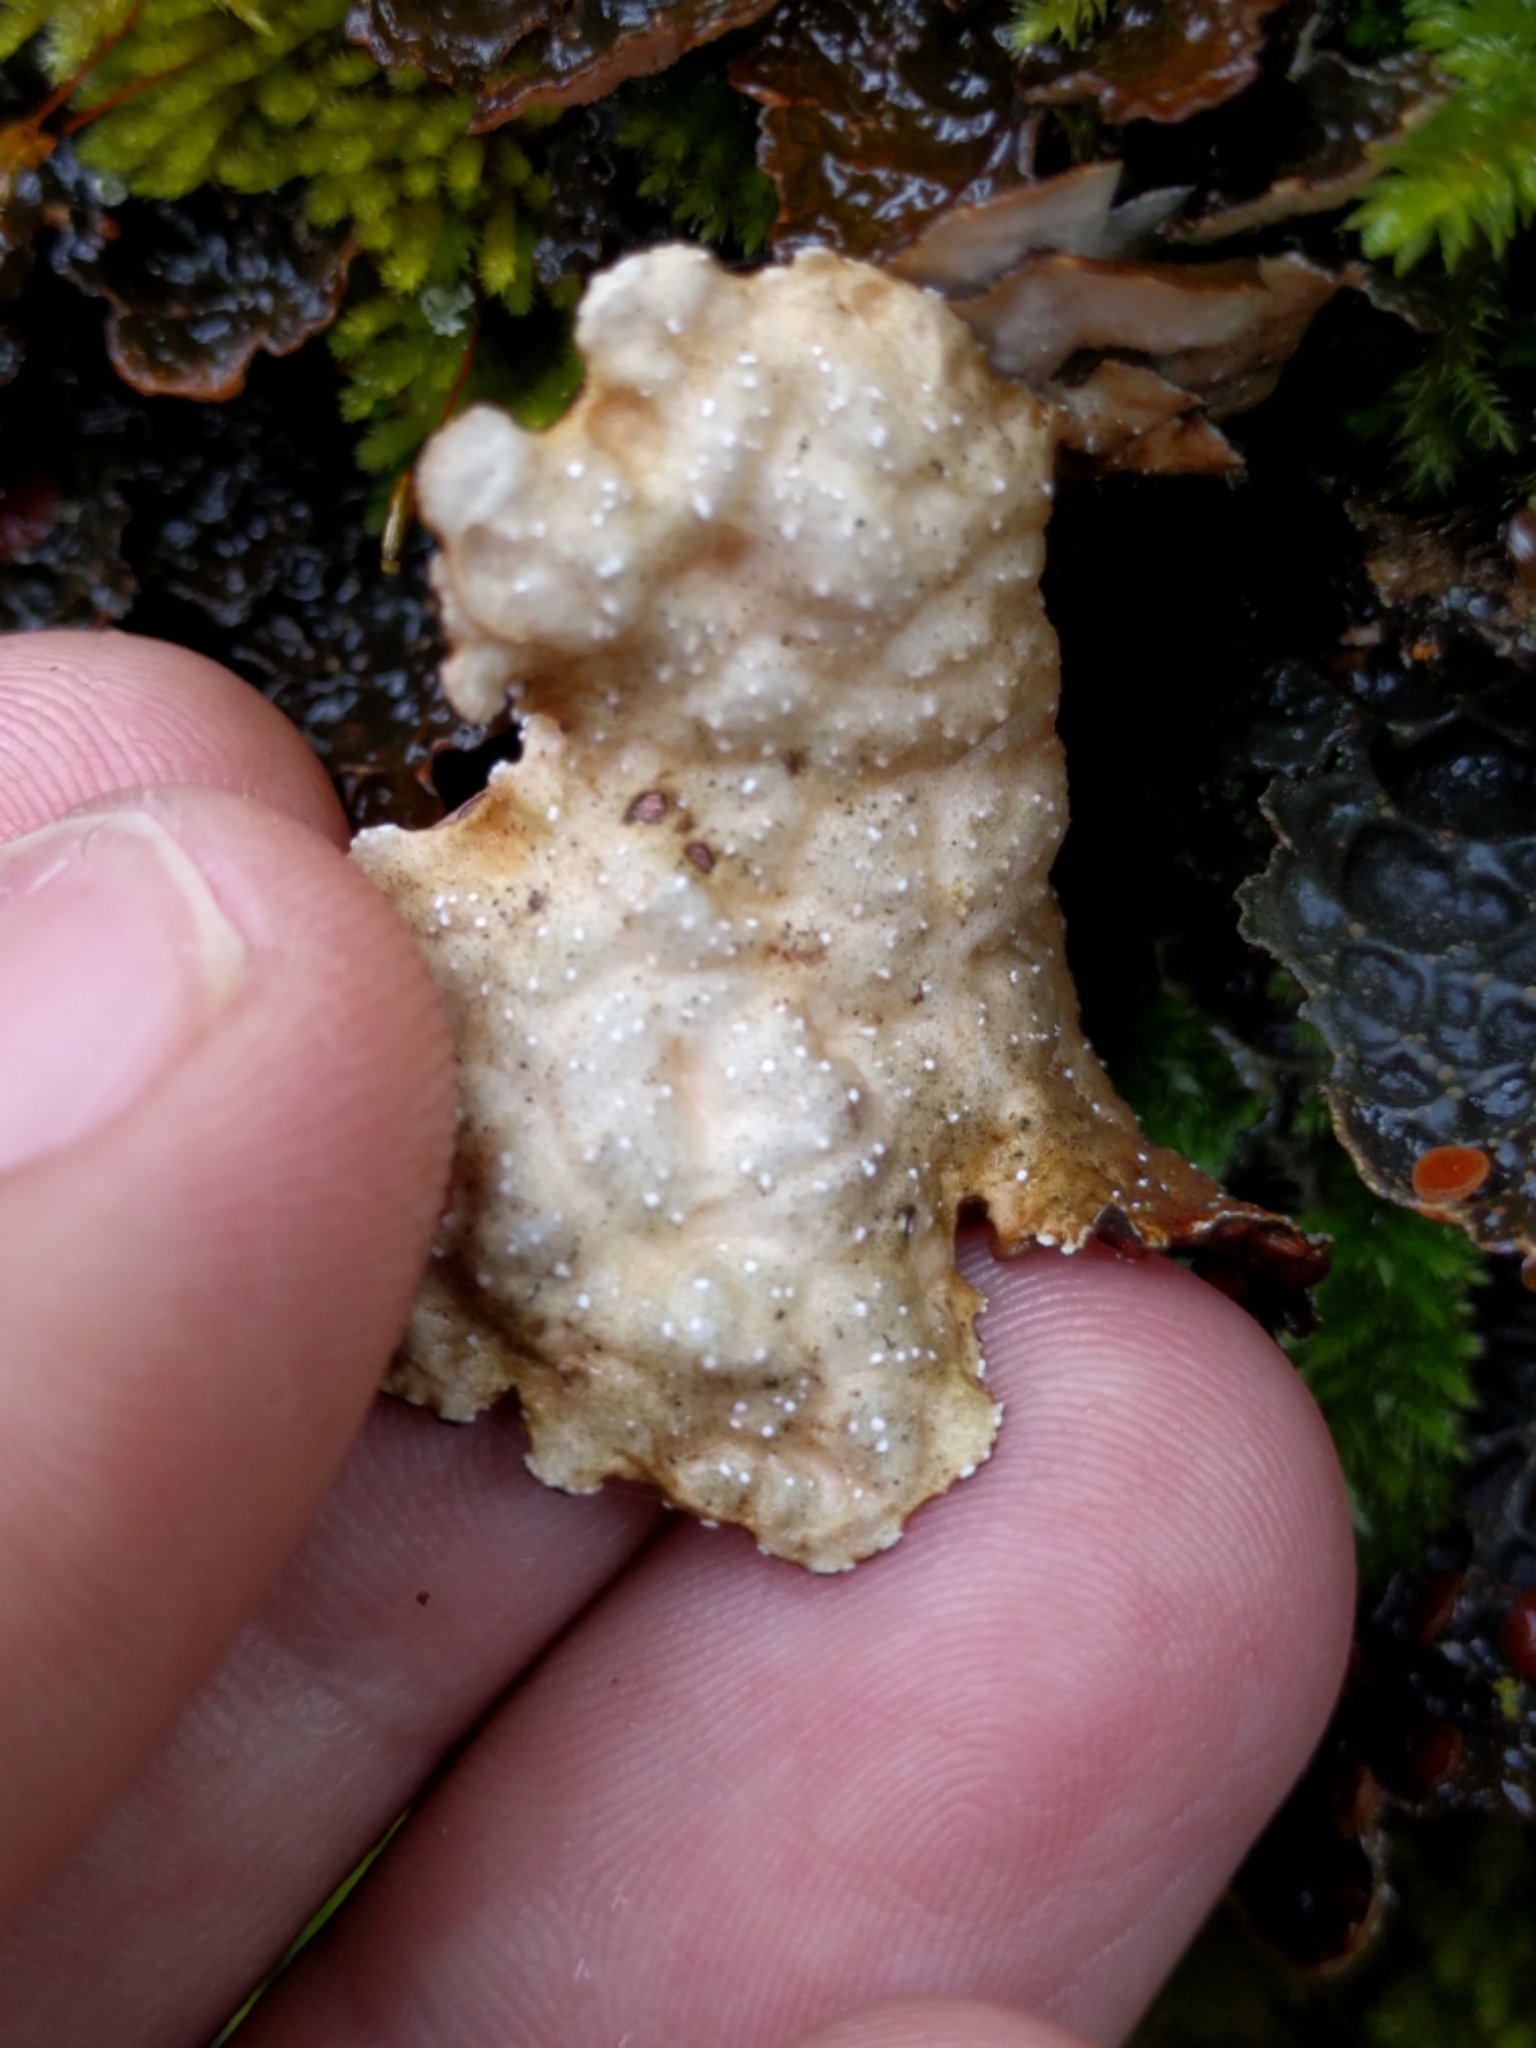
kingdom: Fungi
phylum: Ascomycota
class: Lecanoromycetes
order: Peltigerales
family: Lobariaceae
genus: Lobaria
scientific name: Lobaria anthraspis
